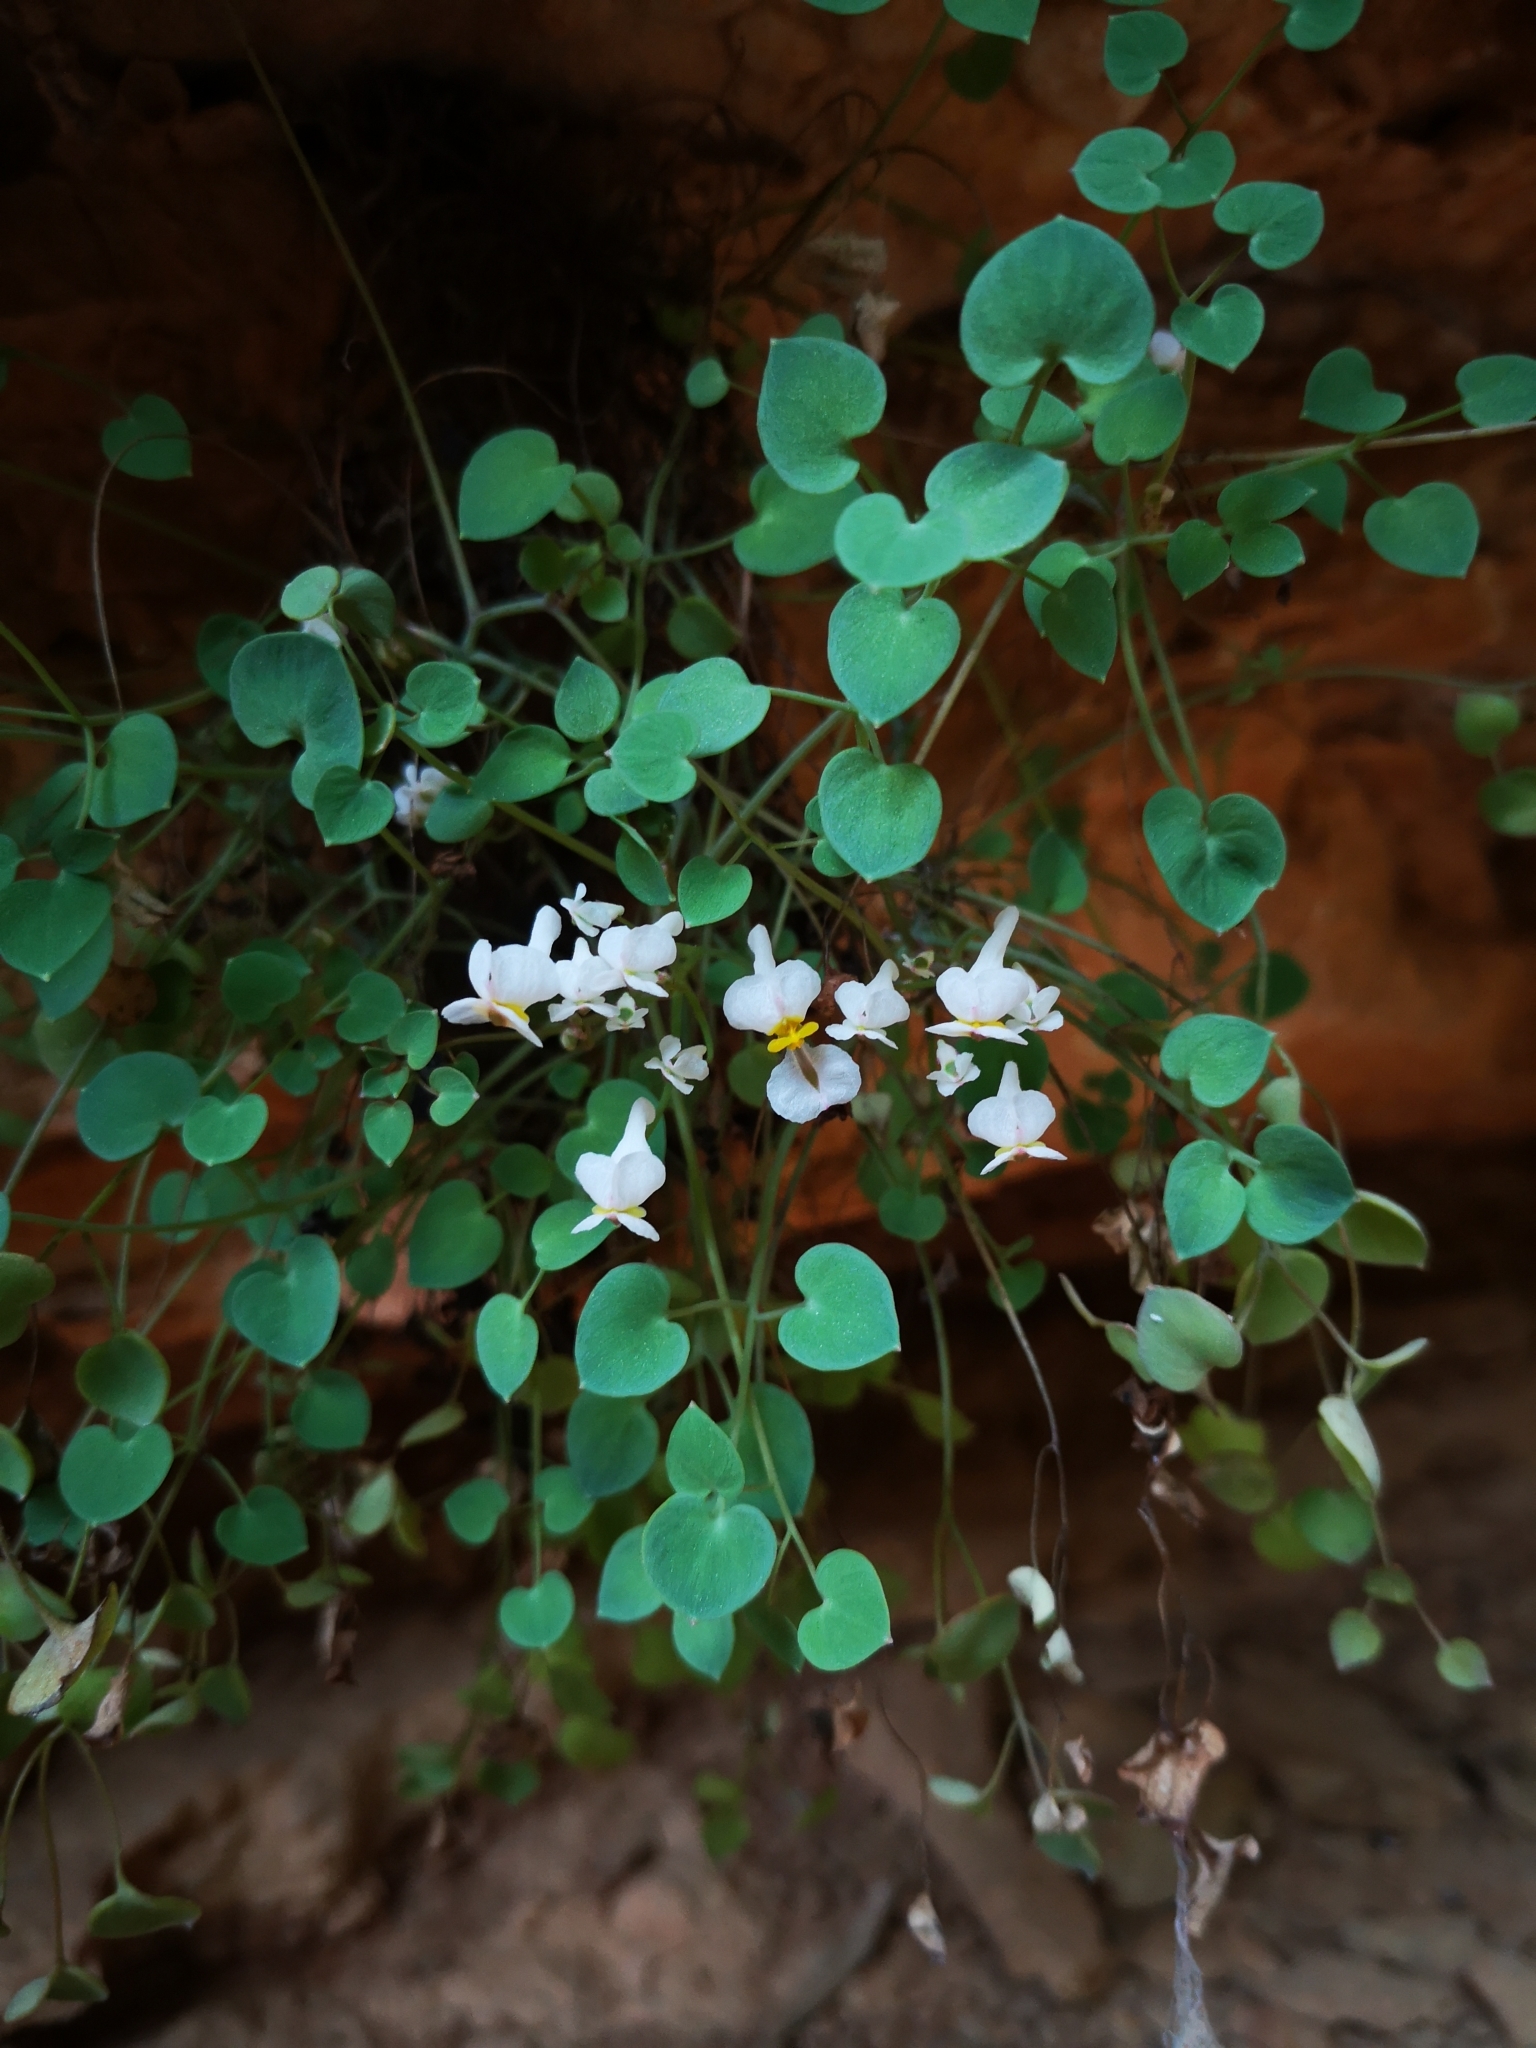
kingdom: Plantae
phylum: Tracheophyta
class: Magnoliopsida
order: Ranunculales
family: Papaveraceae
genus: Sarcocapnos
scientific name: Sarcocapnos enneaphylla
